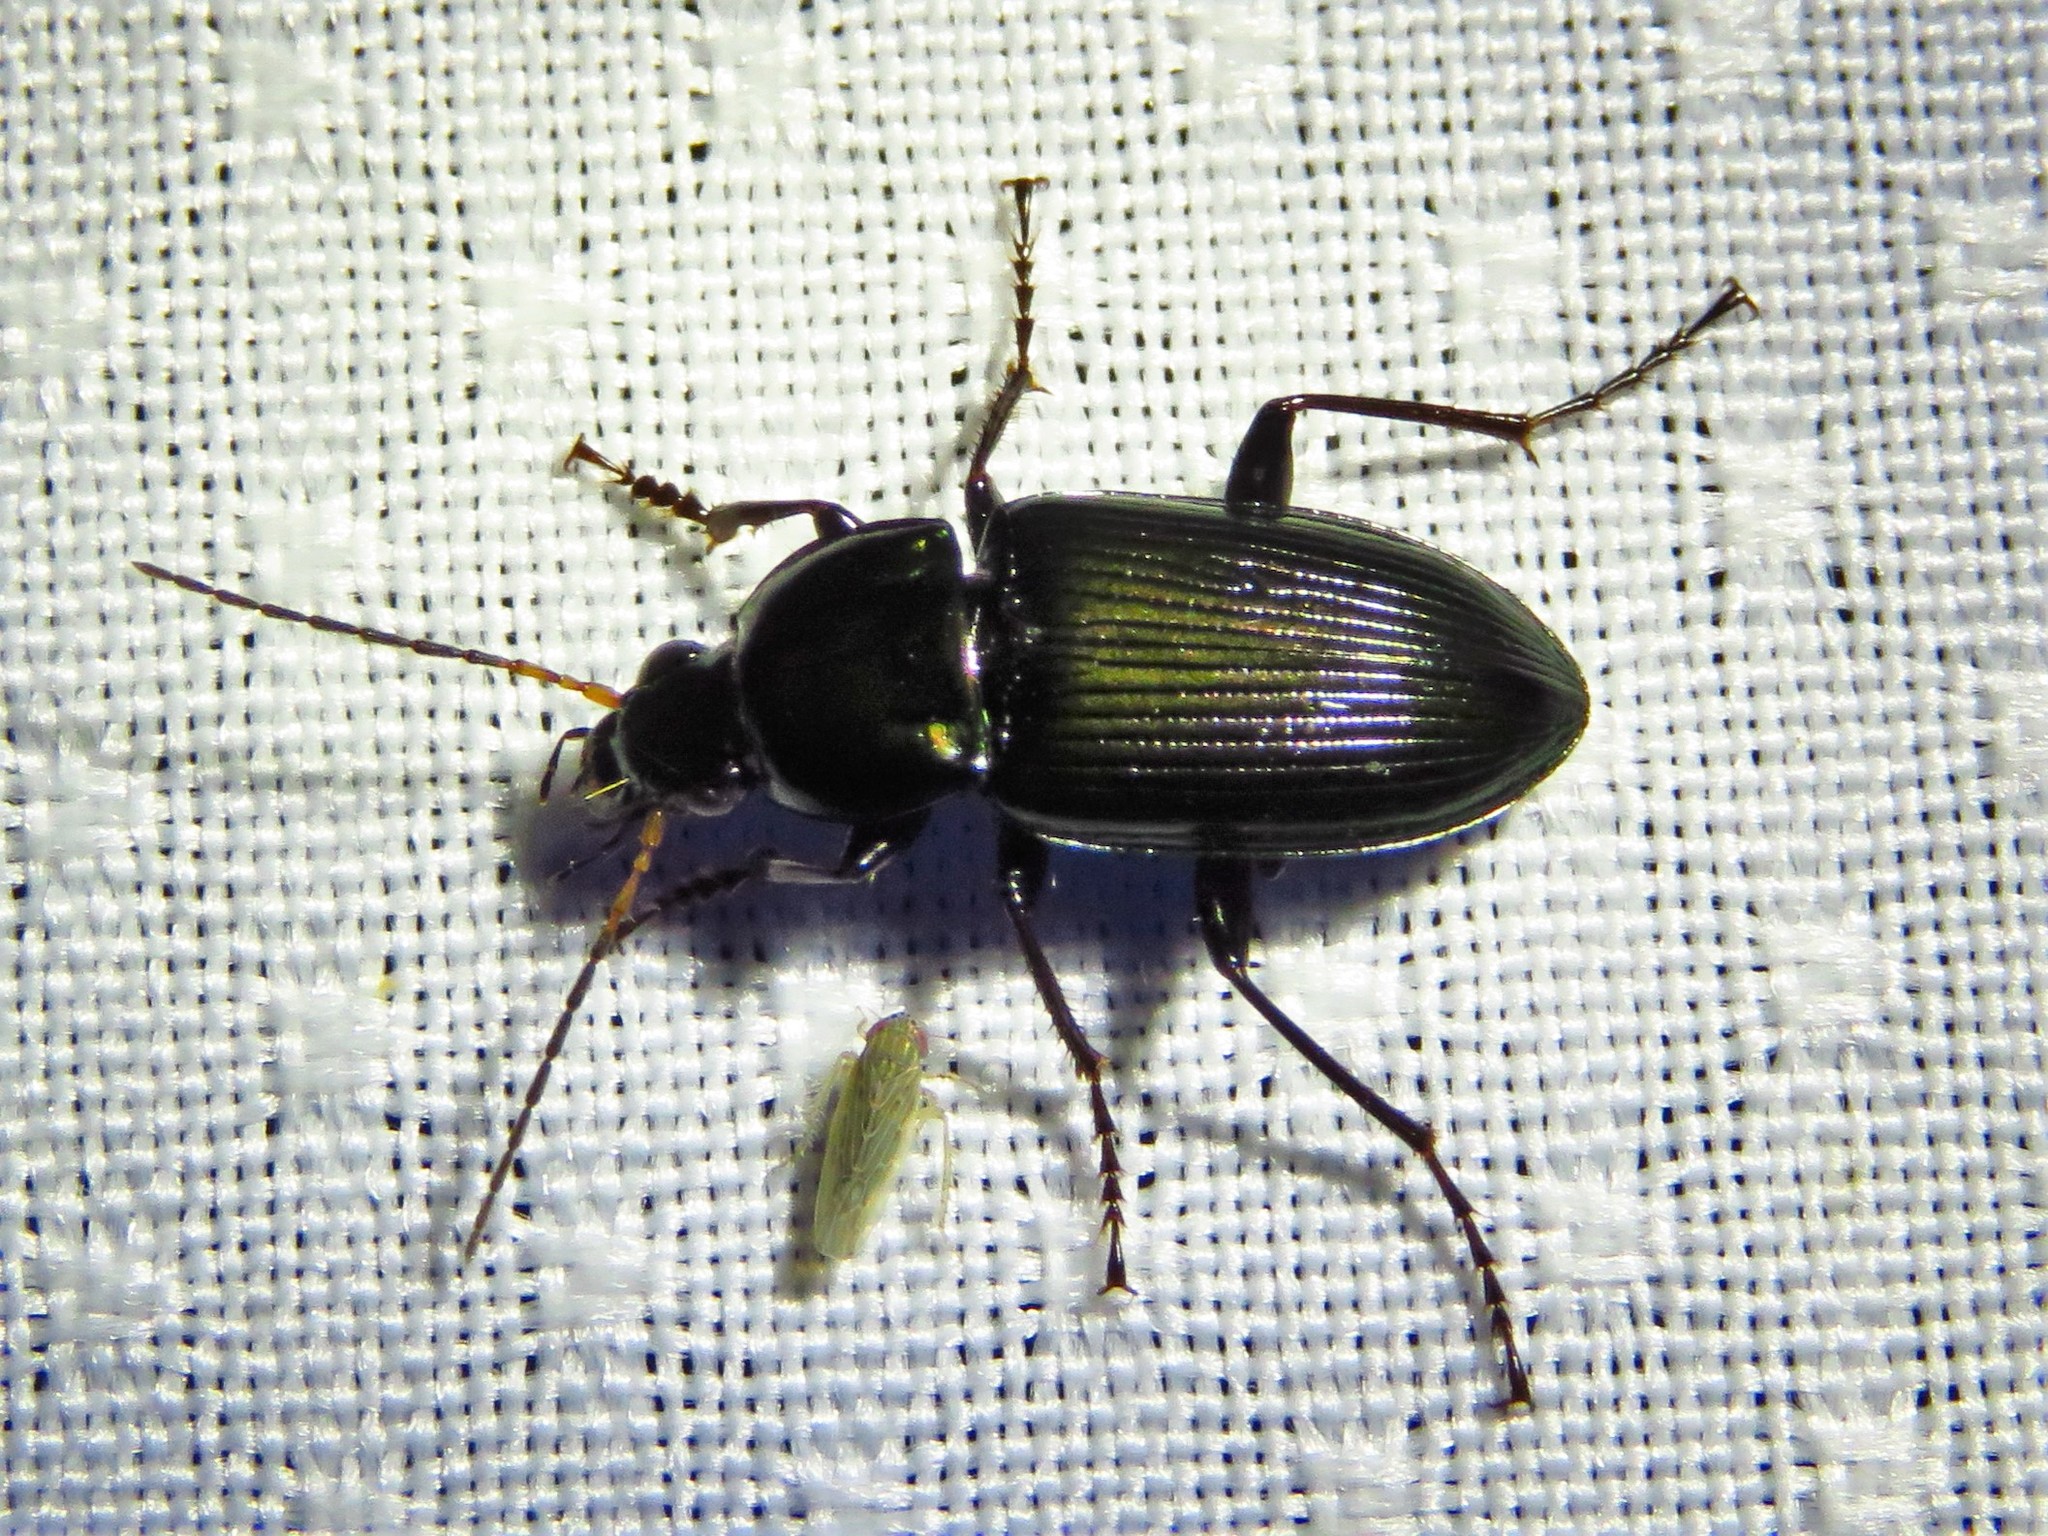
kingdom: Animalia
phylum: Arthropoda
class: Insecta
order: Coleoptera
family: Carabidae
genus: Poecilus
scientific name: Poecilus chalcites
